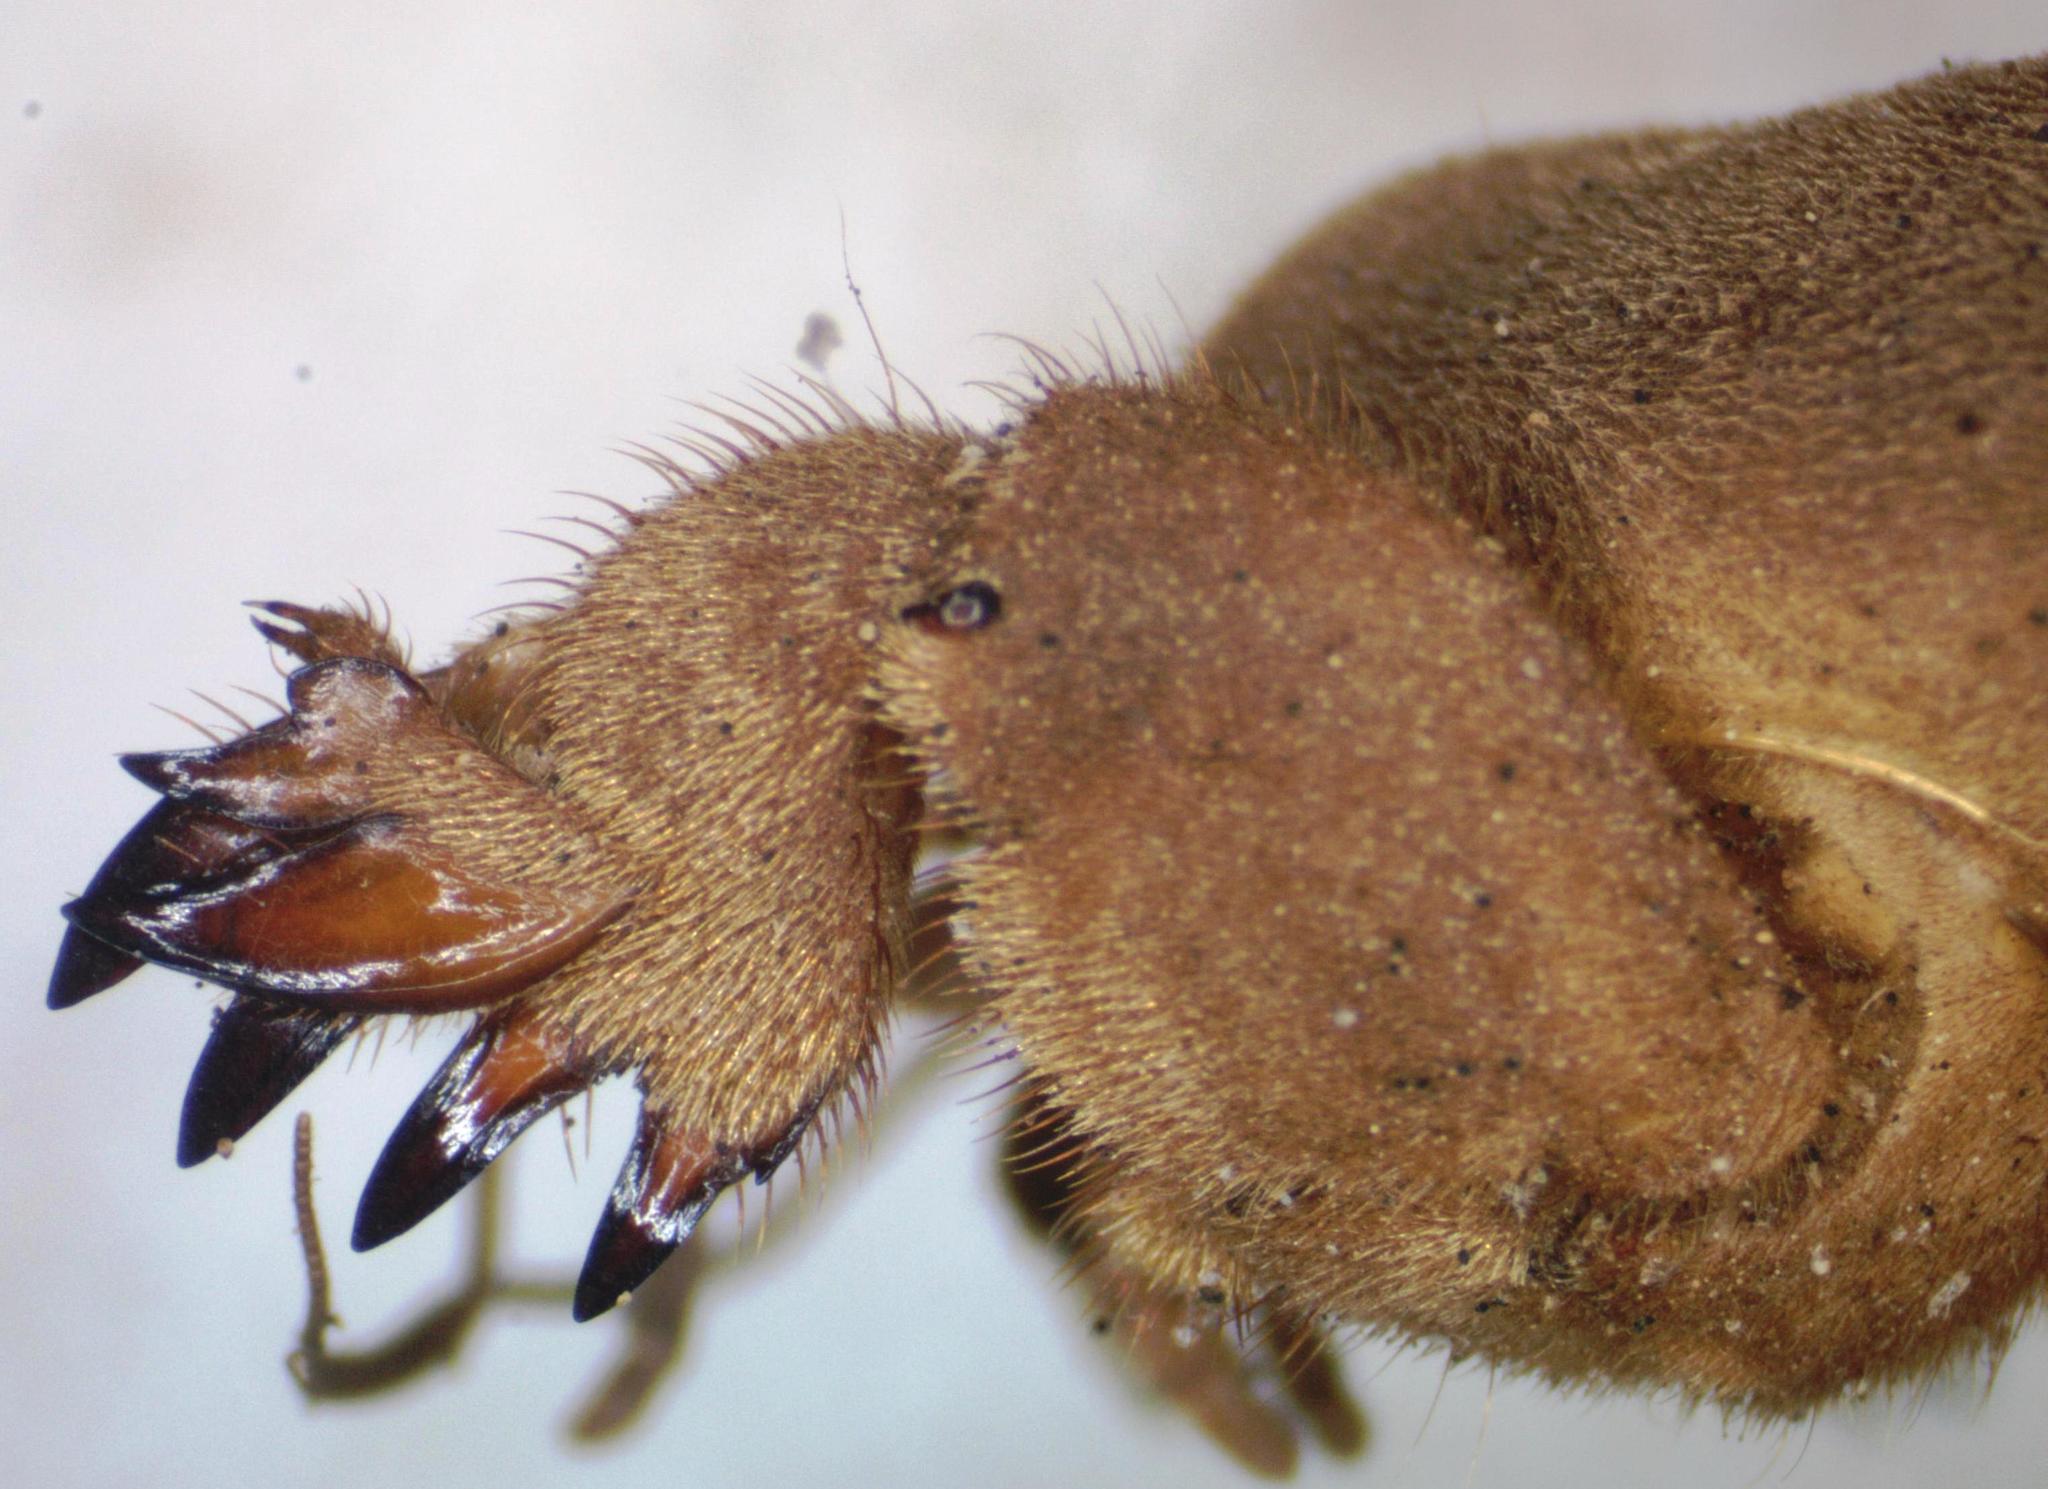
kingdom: Animalia
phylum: Arthropoda
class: Insecta
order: Orthoptera
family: Gryllotalpidae
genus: Neocurtilla
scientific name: Neocurtilla hexadactyla
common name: Northern mole cricket
